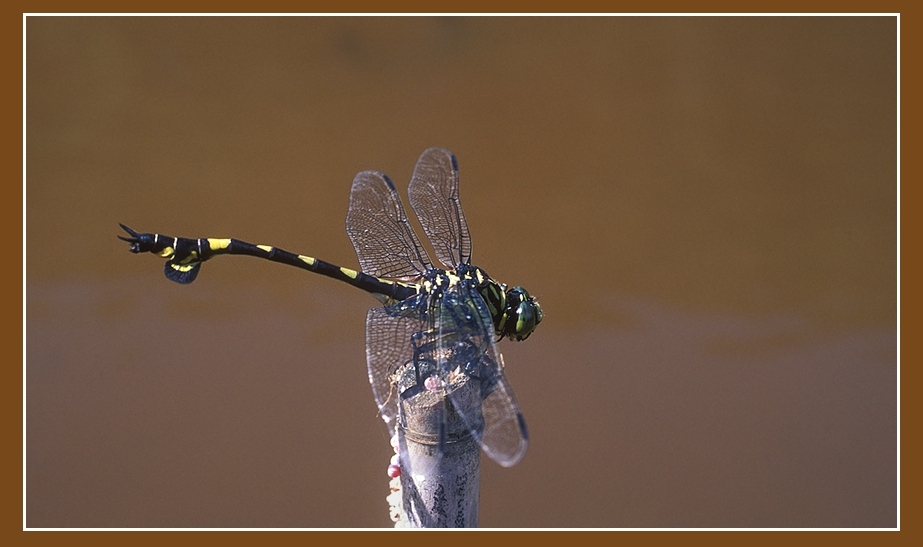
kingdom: Animalia
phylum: Arthropoda
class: Insecta
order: Odonata
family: Gomphidae
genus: Sinictinogomphus
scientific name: Sinictinogomphus clavatus
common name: Golden flangetail
